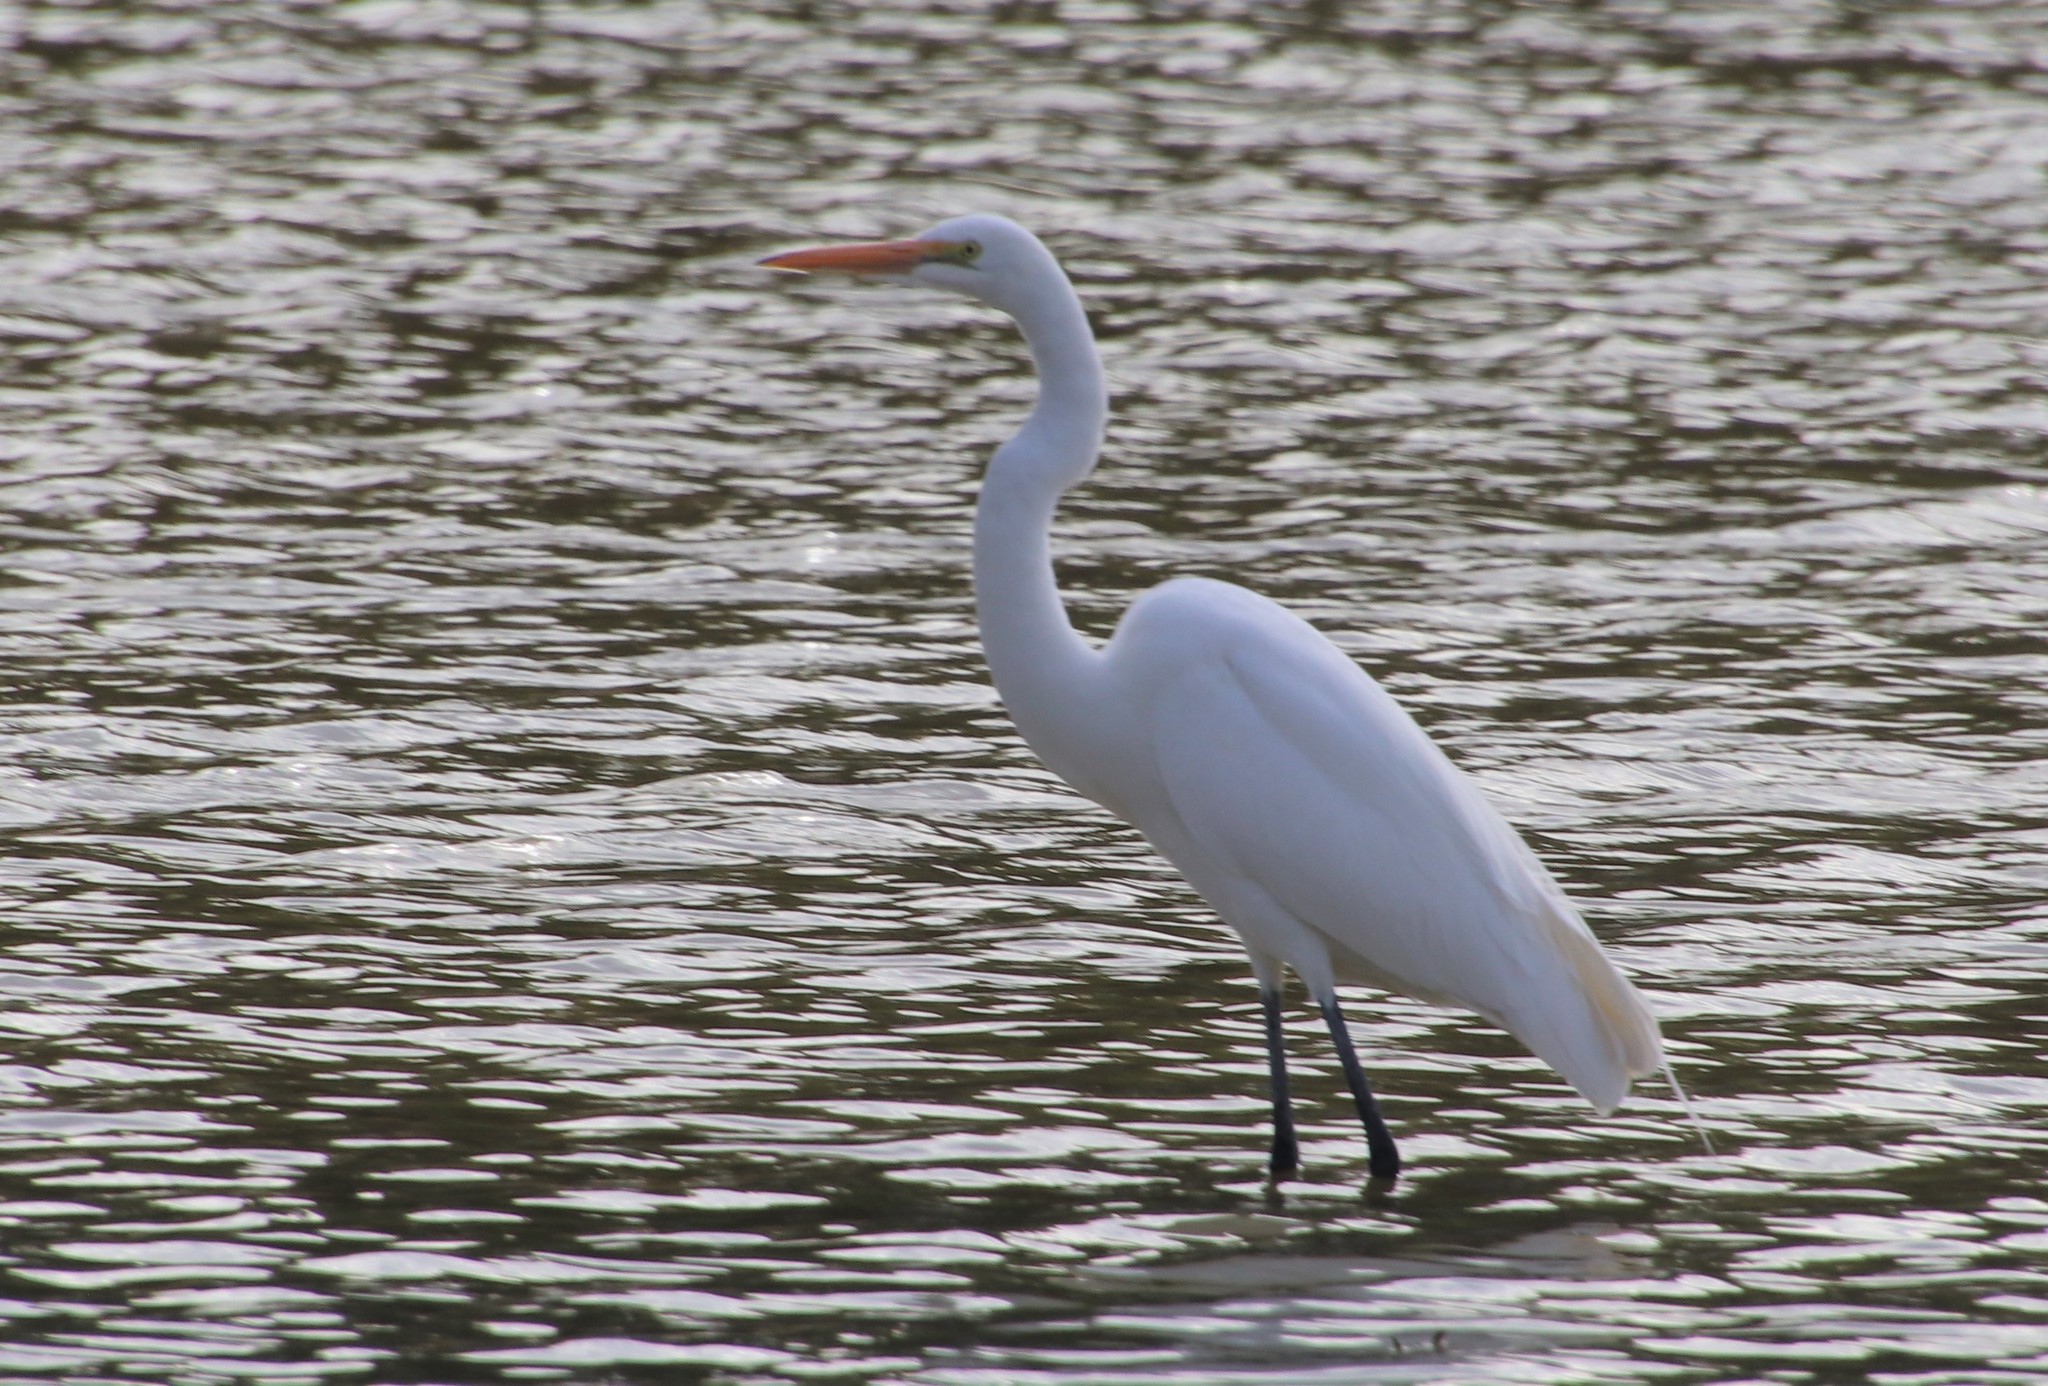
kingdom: Animalia
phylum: Chordata
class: Aves
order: Pelecaniformes
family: Ardeidae
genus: Ardea
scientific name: Ardea alba
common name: Great egret
